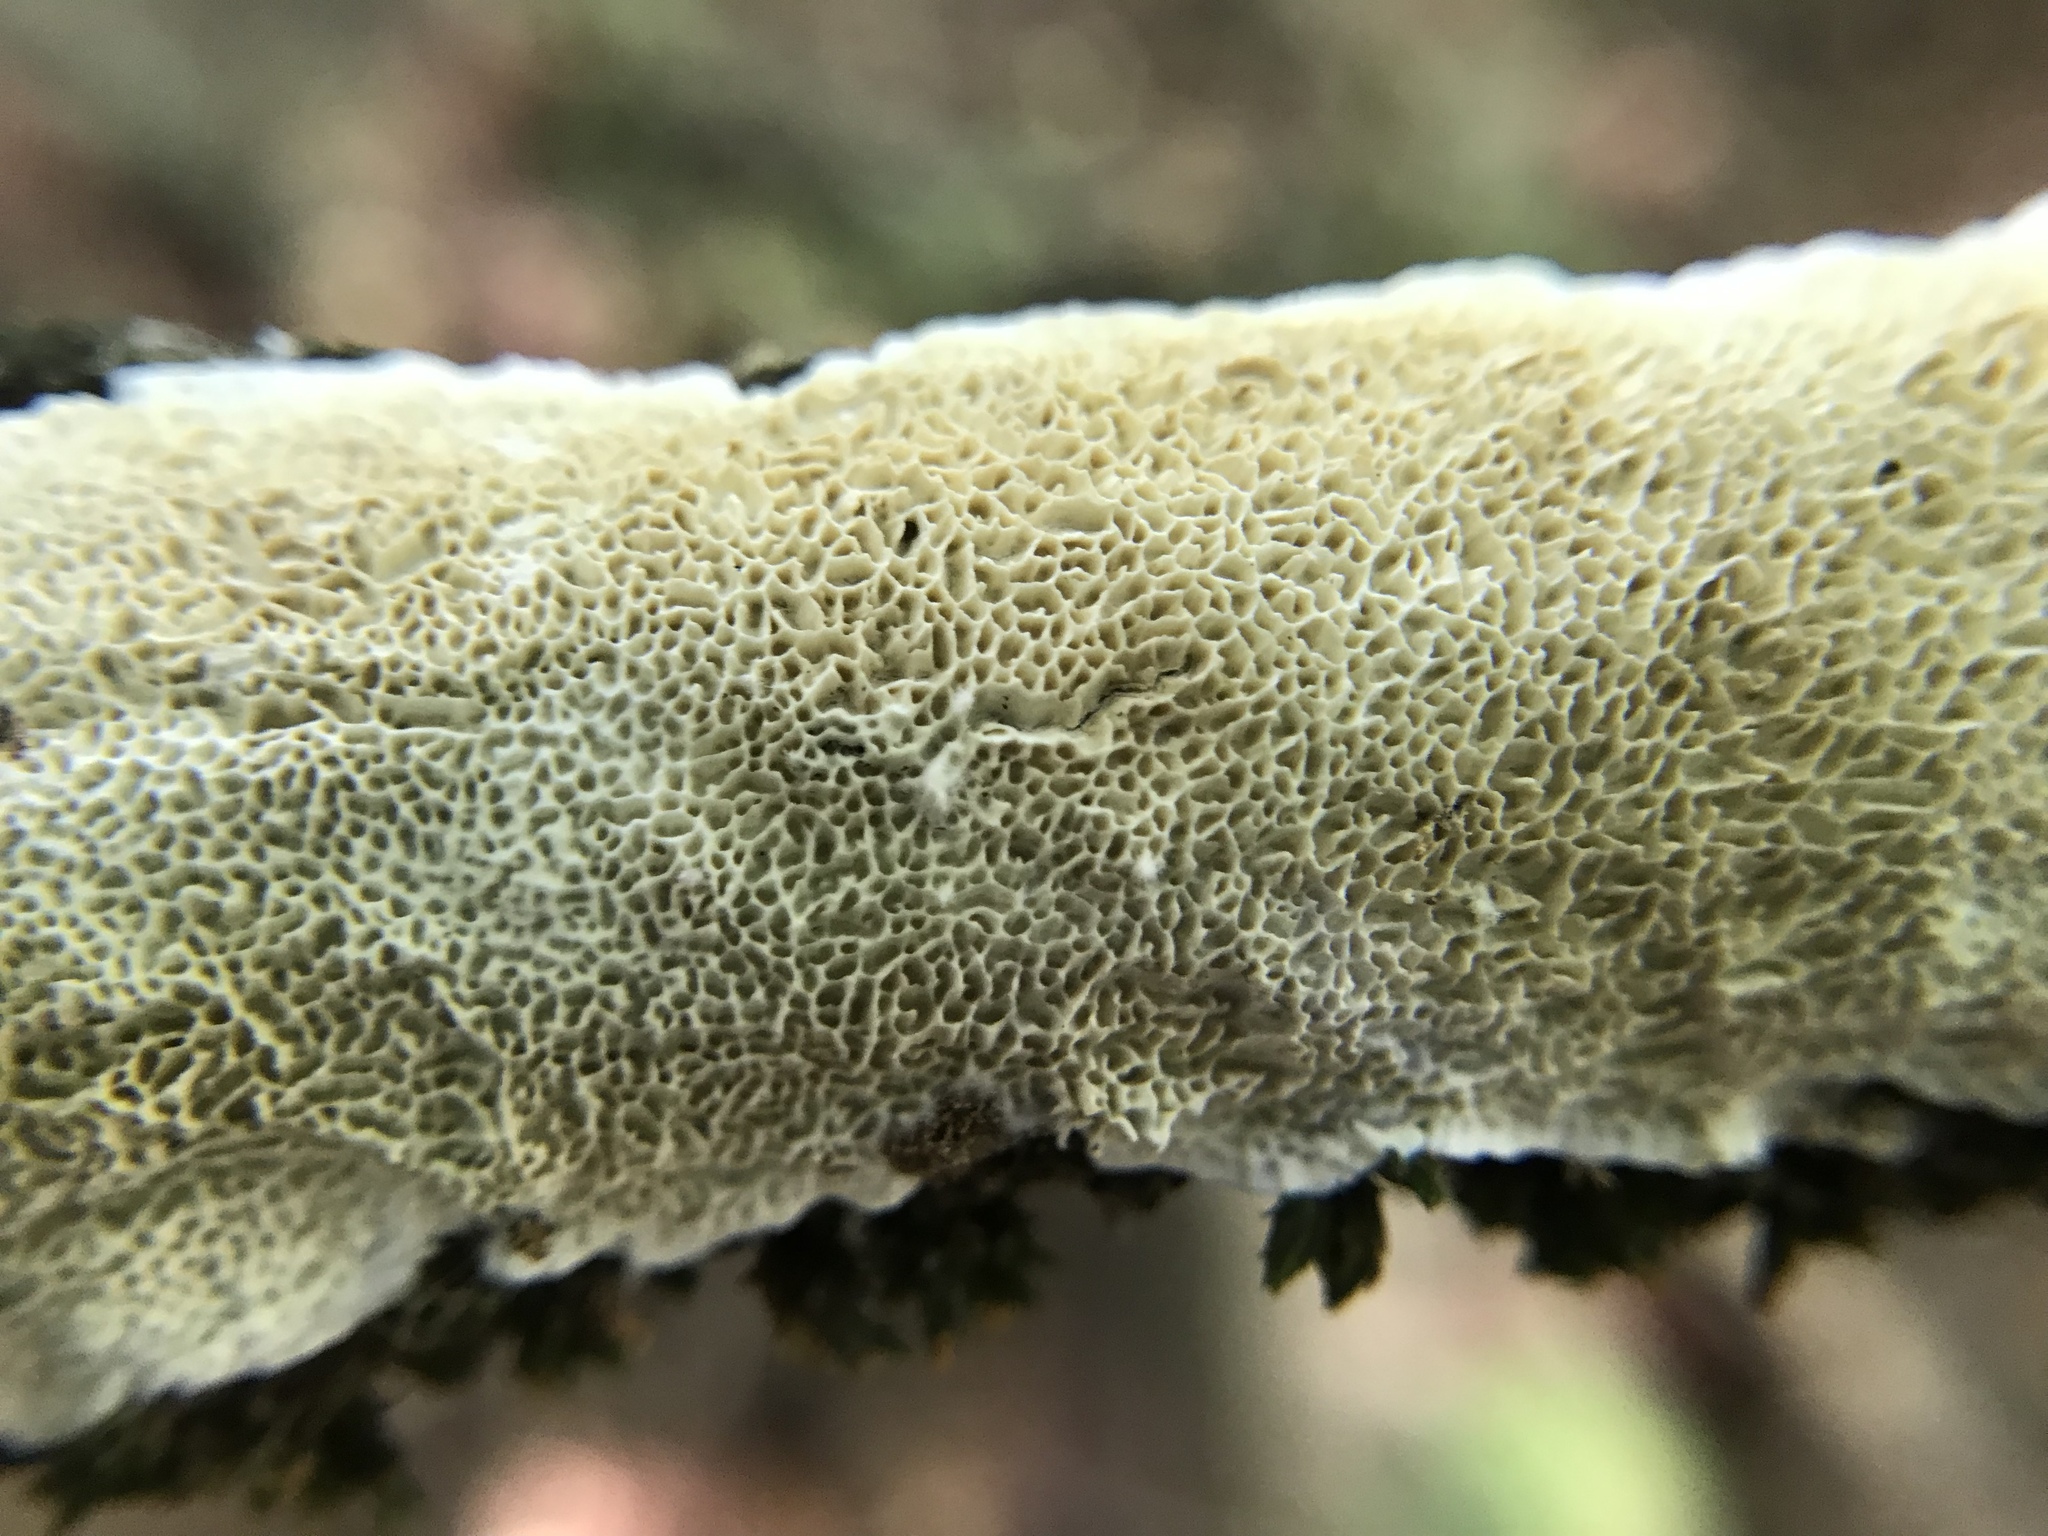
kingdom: Fungi
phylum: Basidiomycota
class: Agaricomycetes
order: Polyporales
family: Irpicaceae
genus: Irpex
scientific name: Irpex lacteus
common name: Milk-white toothed polypore
